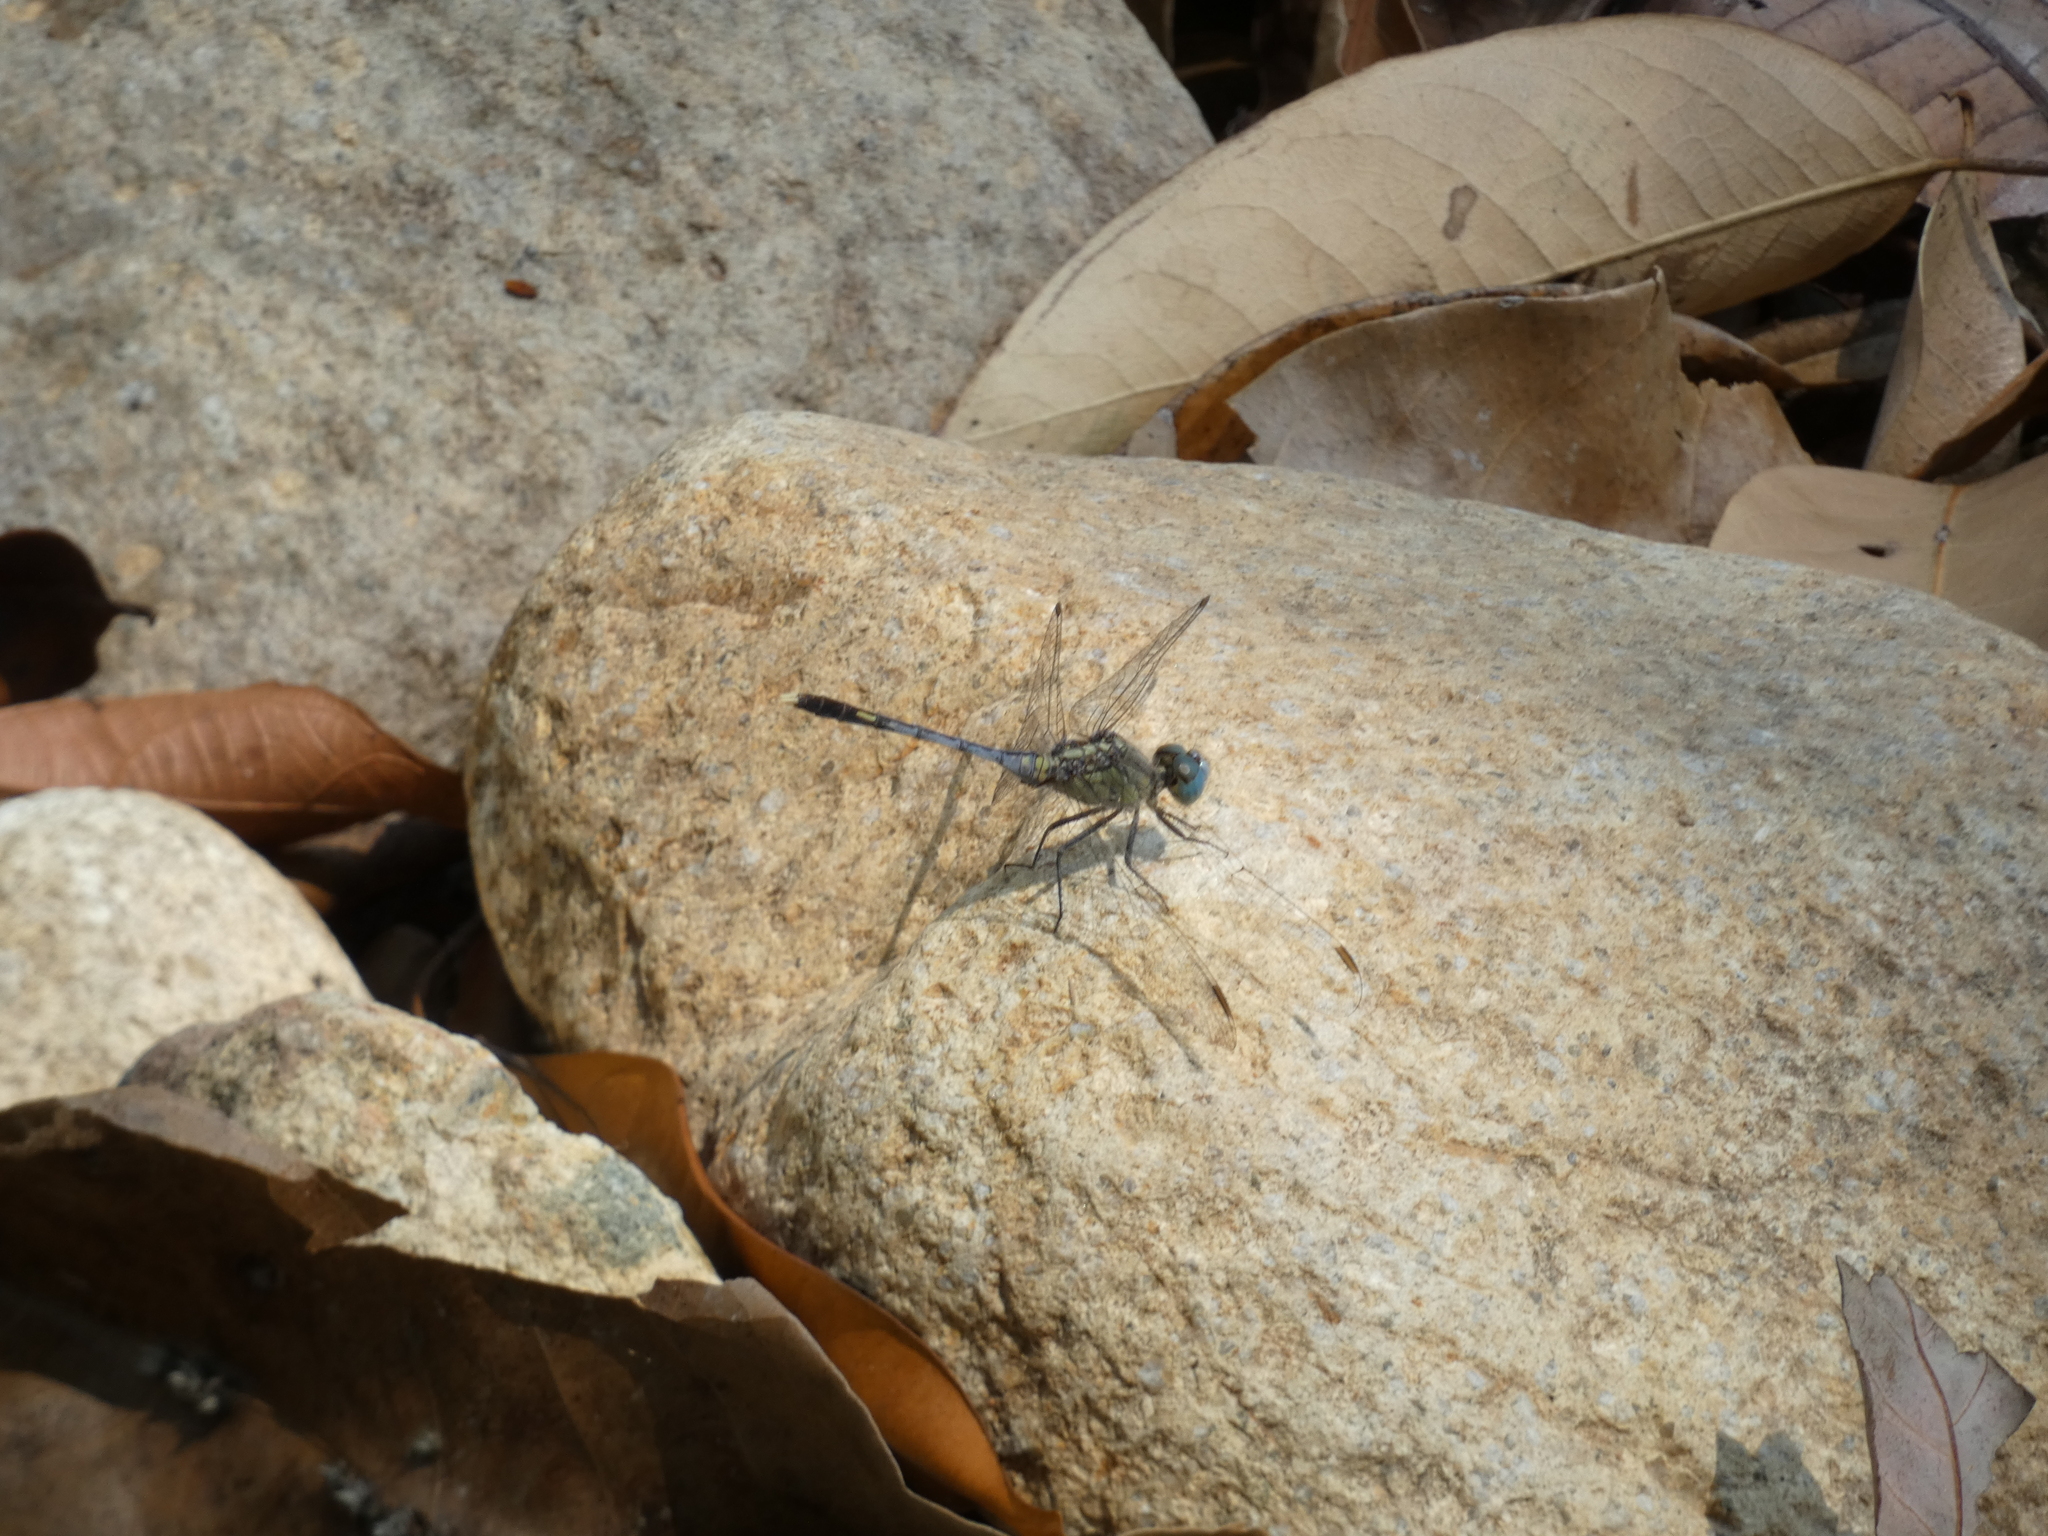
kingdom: Animalia
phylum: Arthropoda
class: Insecta
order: Odonata
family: Libellulidae
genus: Diplacodes
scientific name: Diplacodes trivialis
